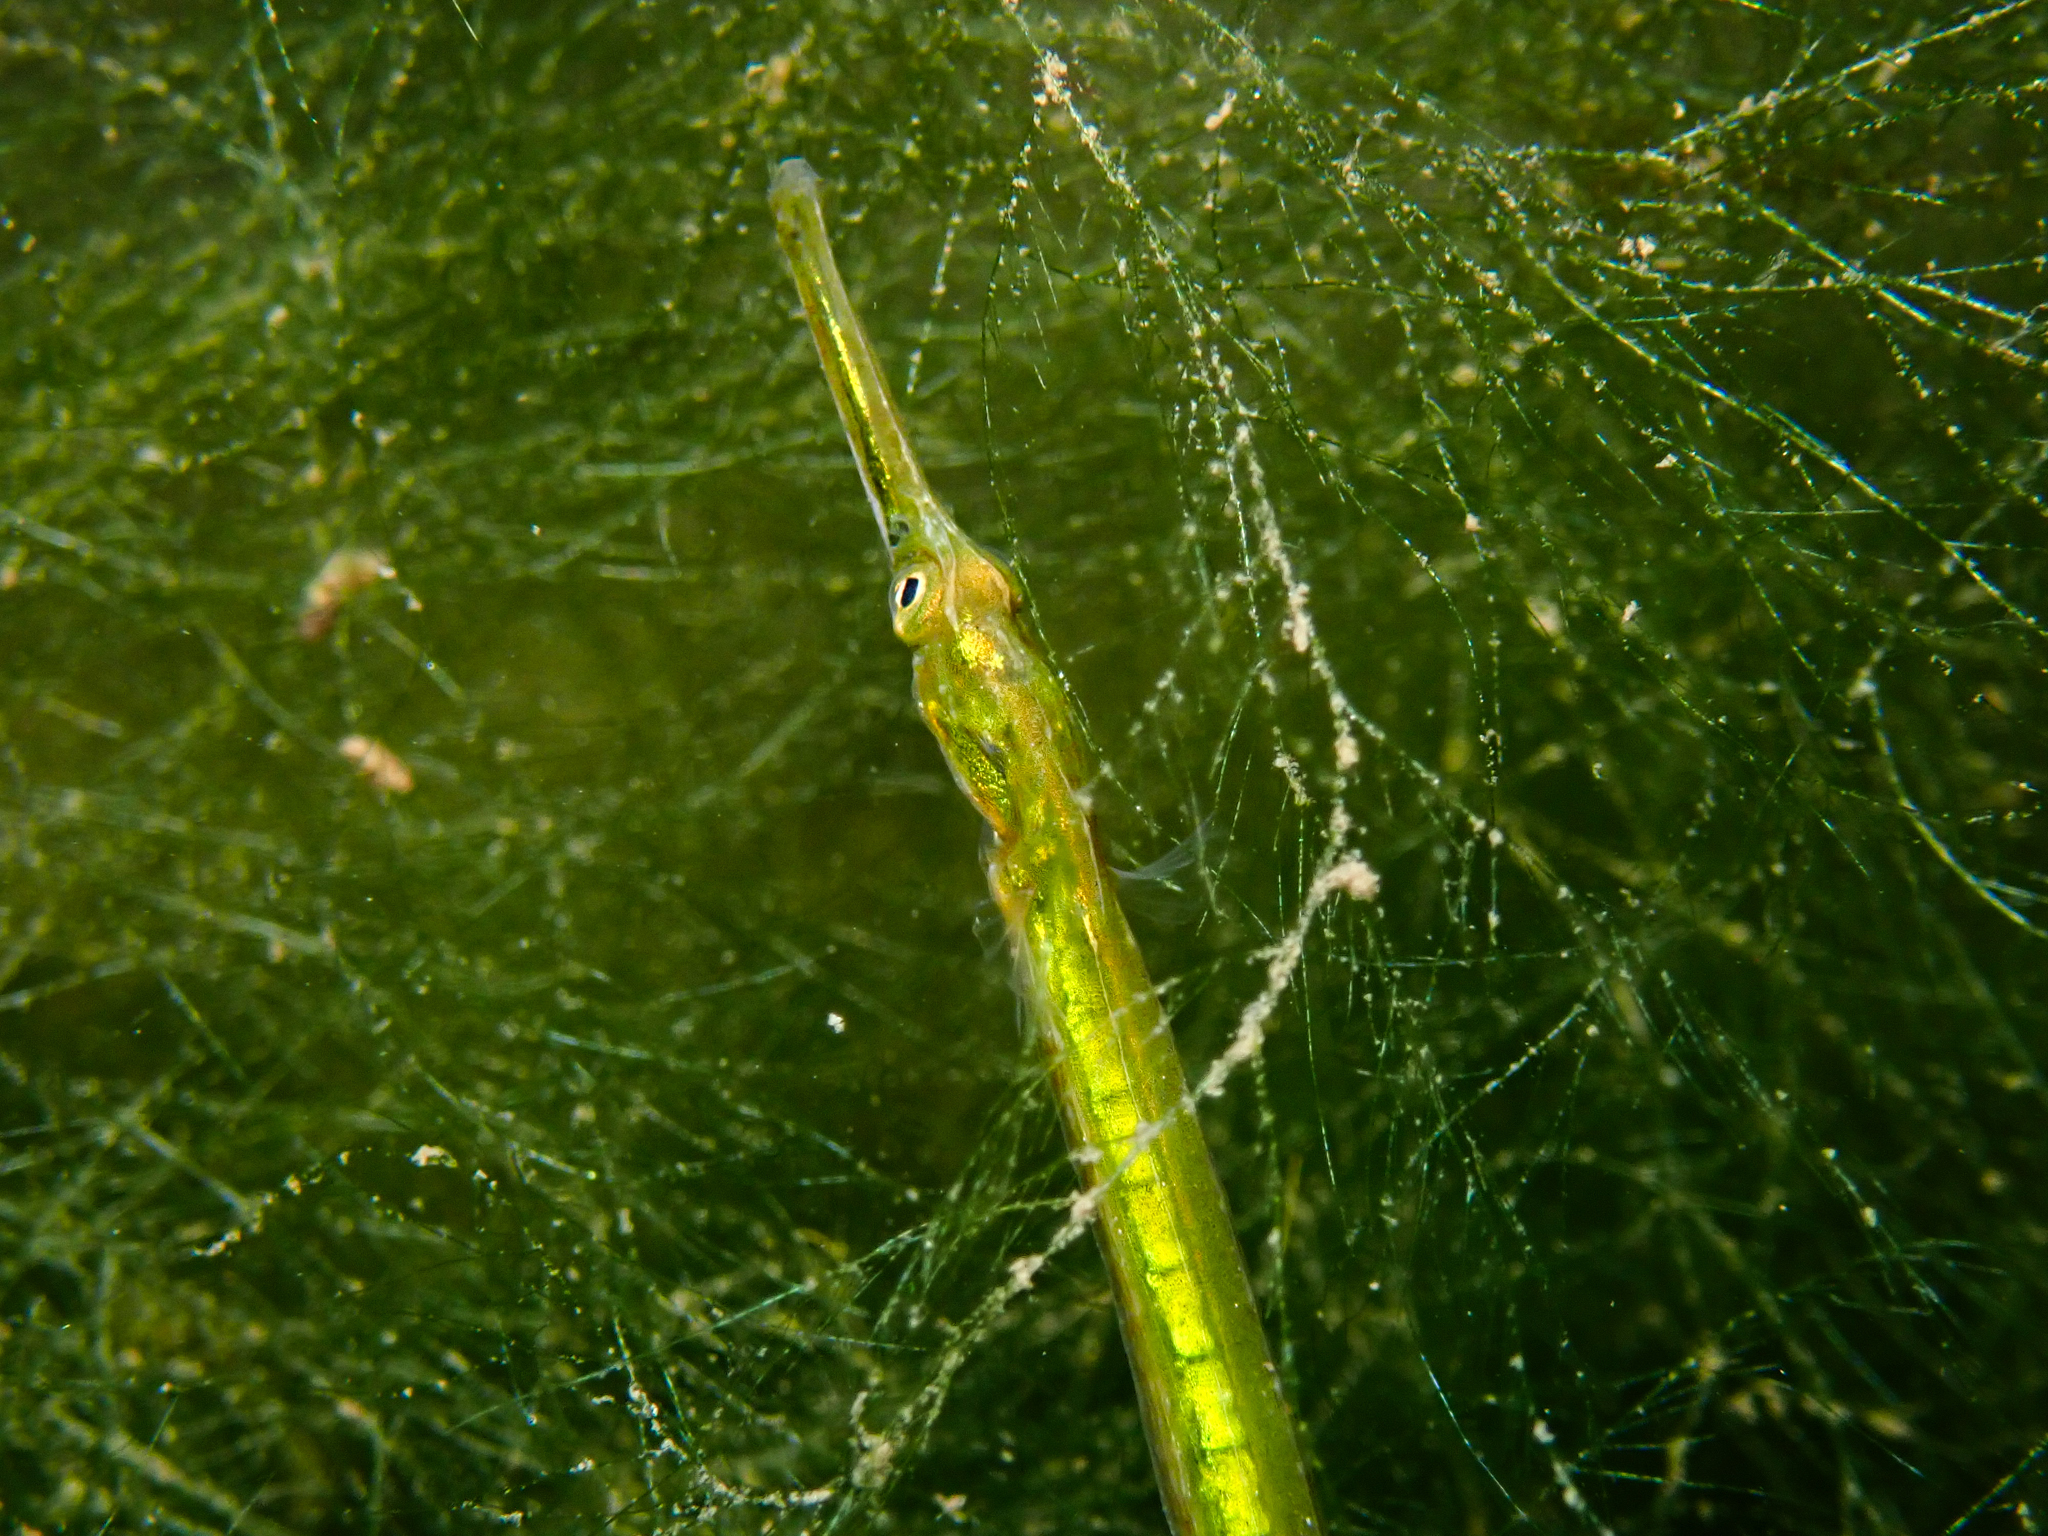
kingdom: Animalia
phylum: Chordata
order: Syngnathiformes
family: Syngnathidae
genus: Syngnathus
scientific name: Syngnathus rostellatus
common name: Nilsson's pipefish
